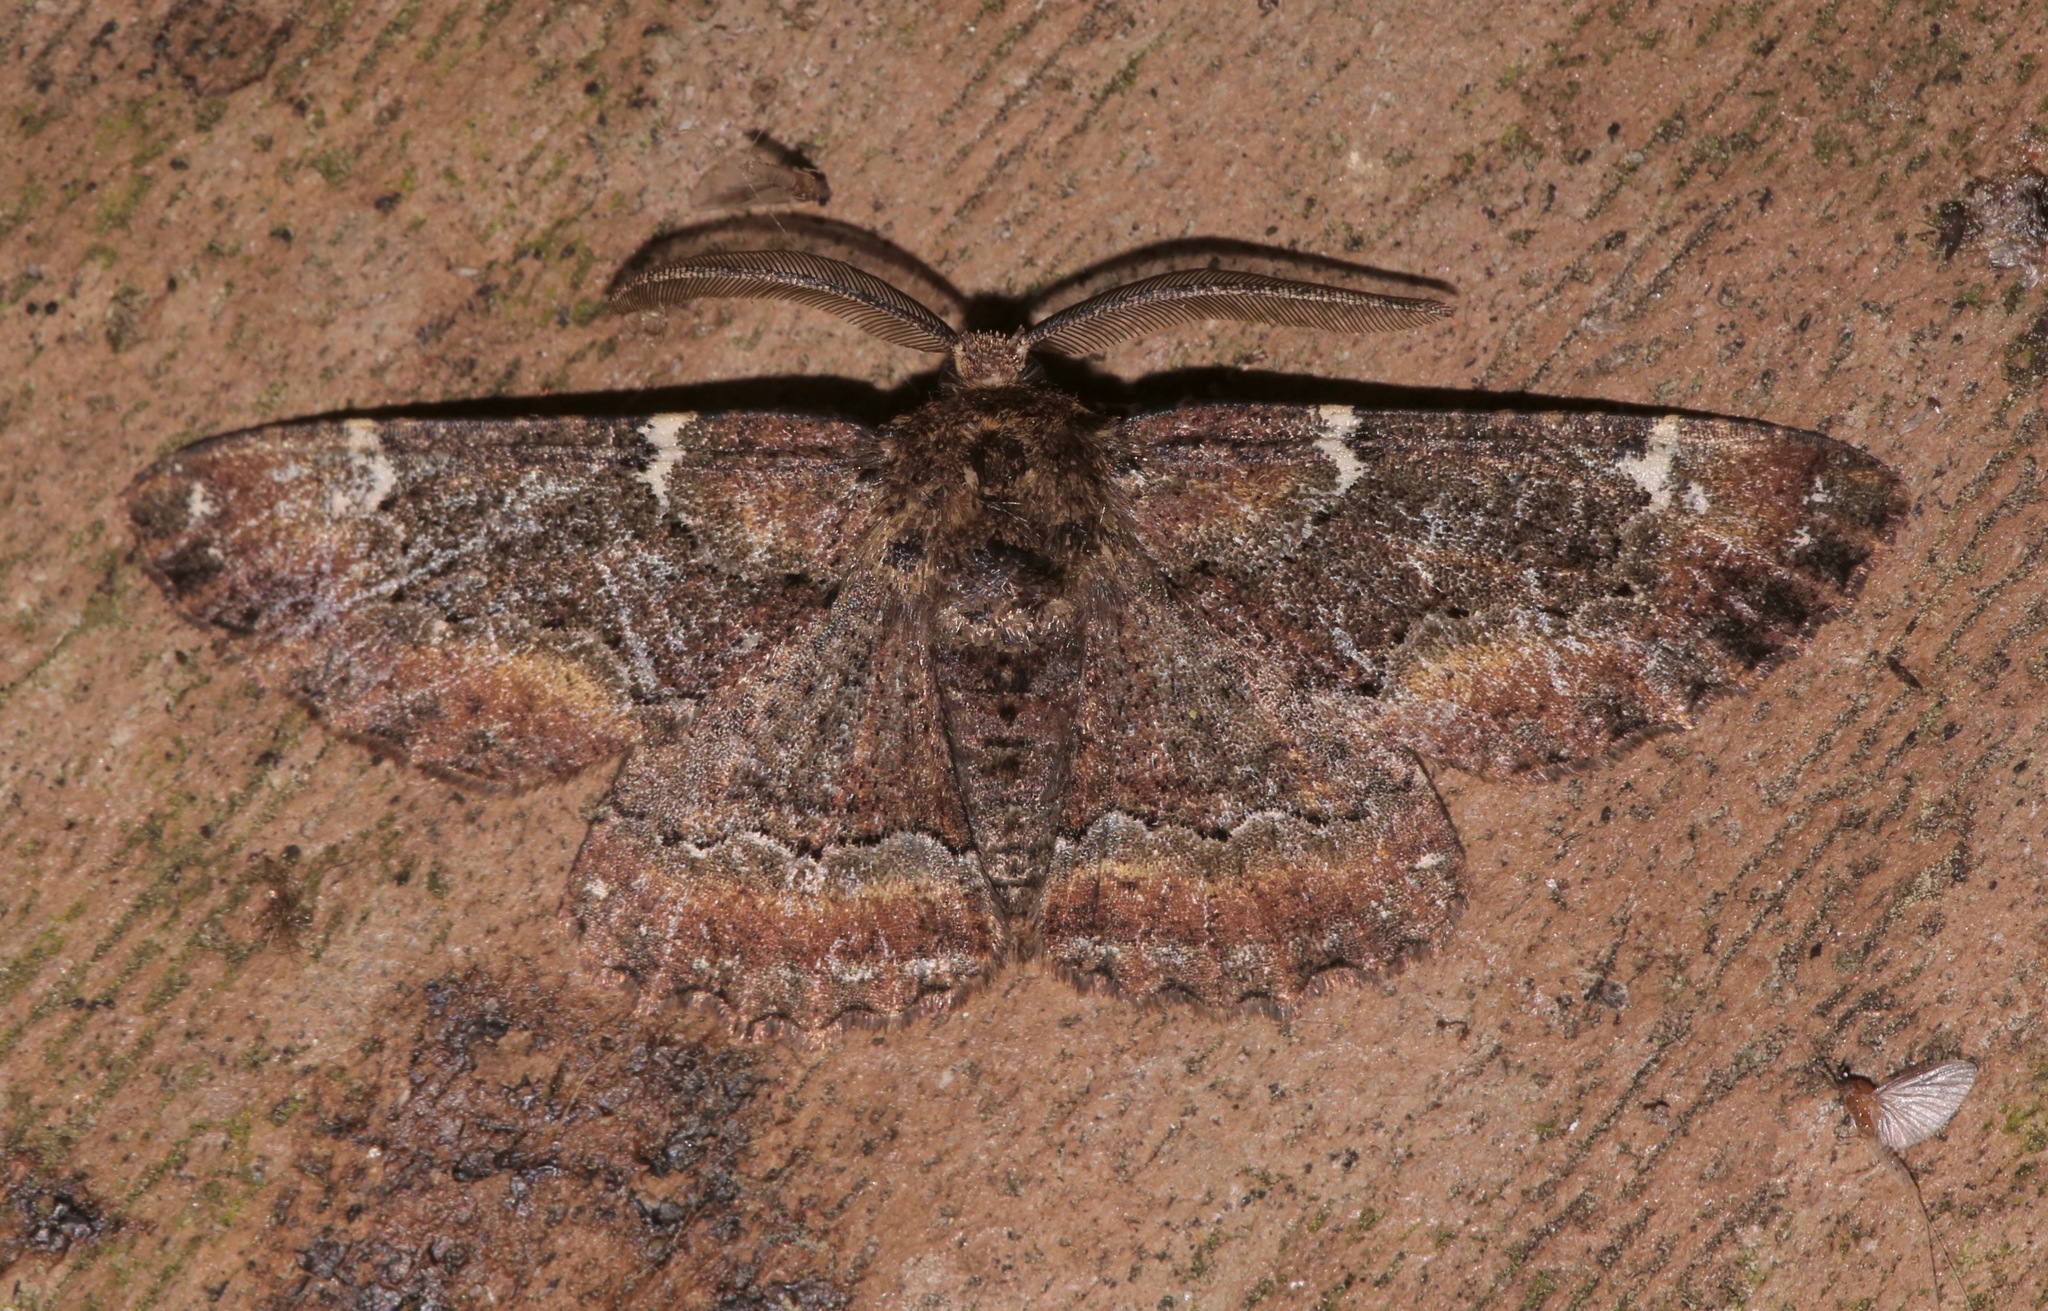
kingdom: Animalia
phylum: Arthropoda
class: Insecta
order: Lepidoptera
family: Geometridae
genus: Phaeoura
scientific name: Phaeoura quernaria
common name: Oak beauty
